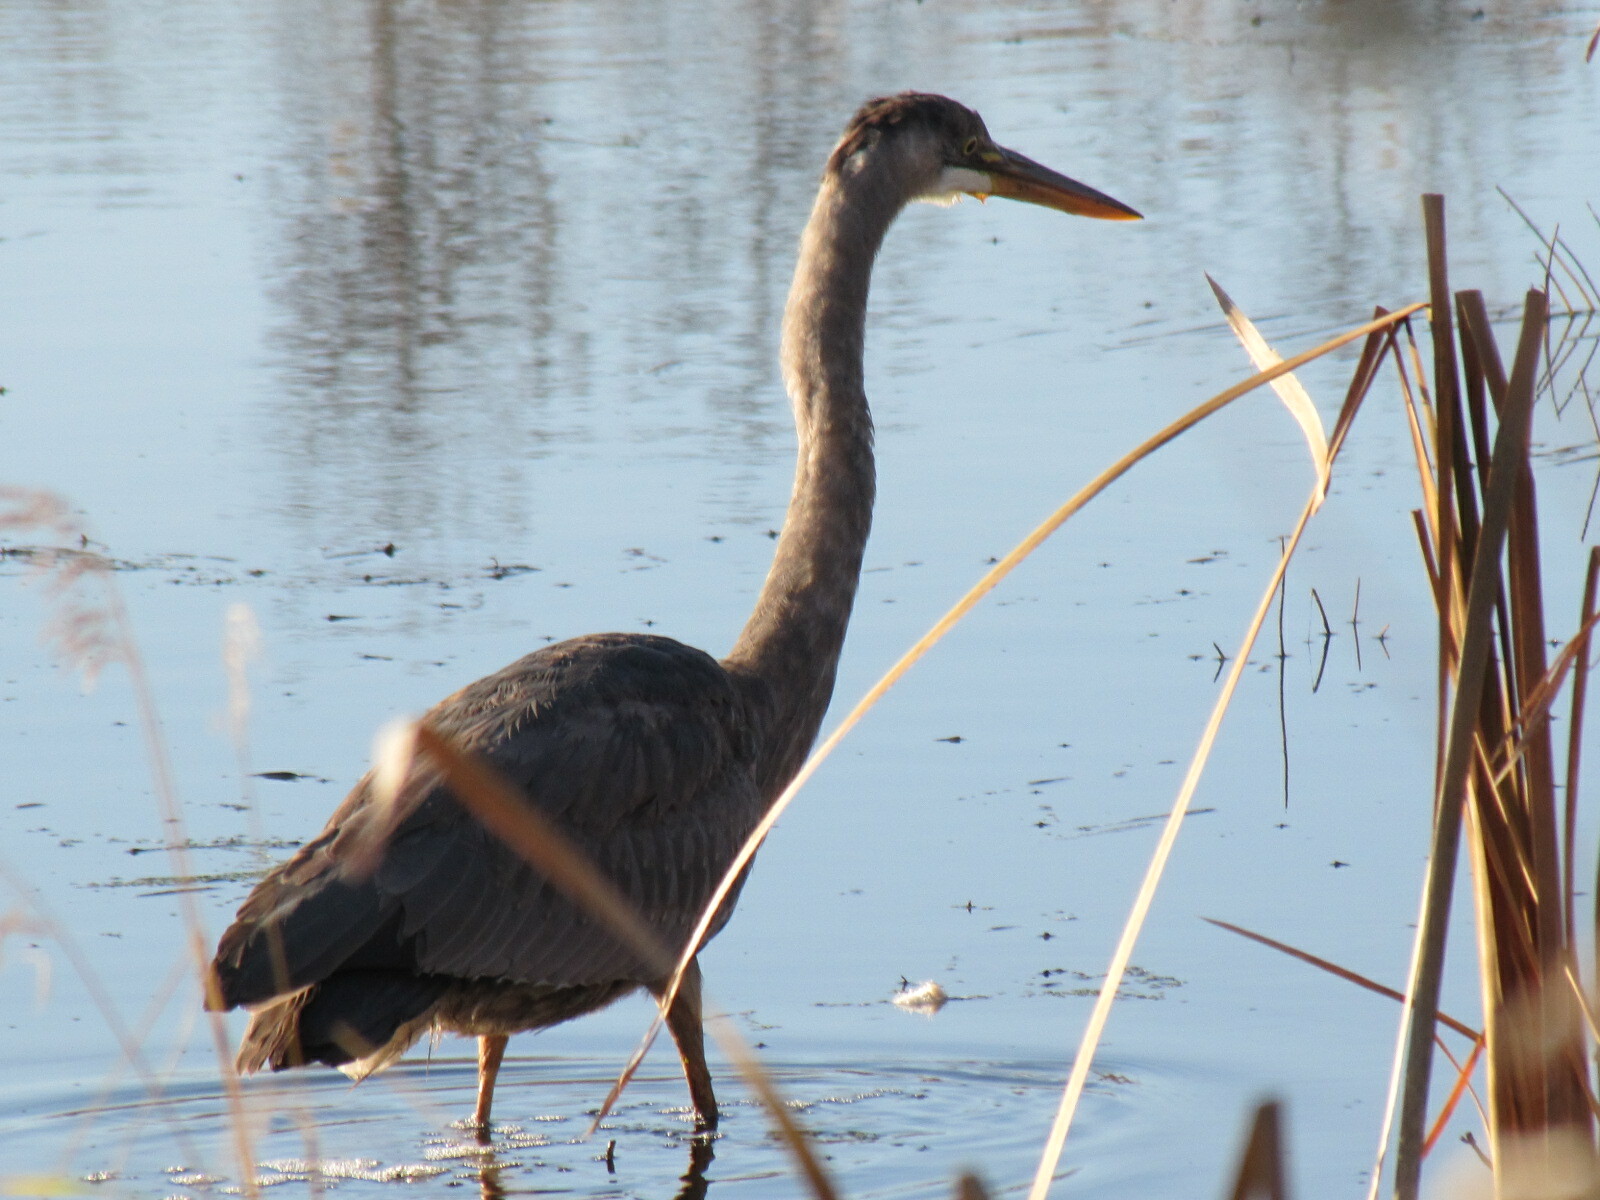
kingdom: Animalia
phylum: Chordata
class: Aves
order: Pelecaniformes
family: Ardeidae
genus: Ardea
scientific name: Ardea herodias
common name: Great blue heron
